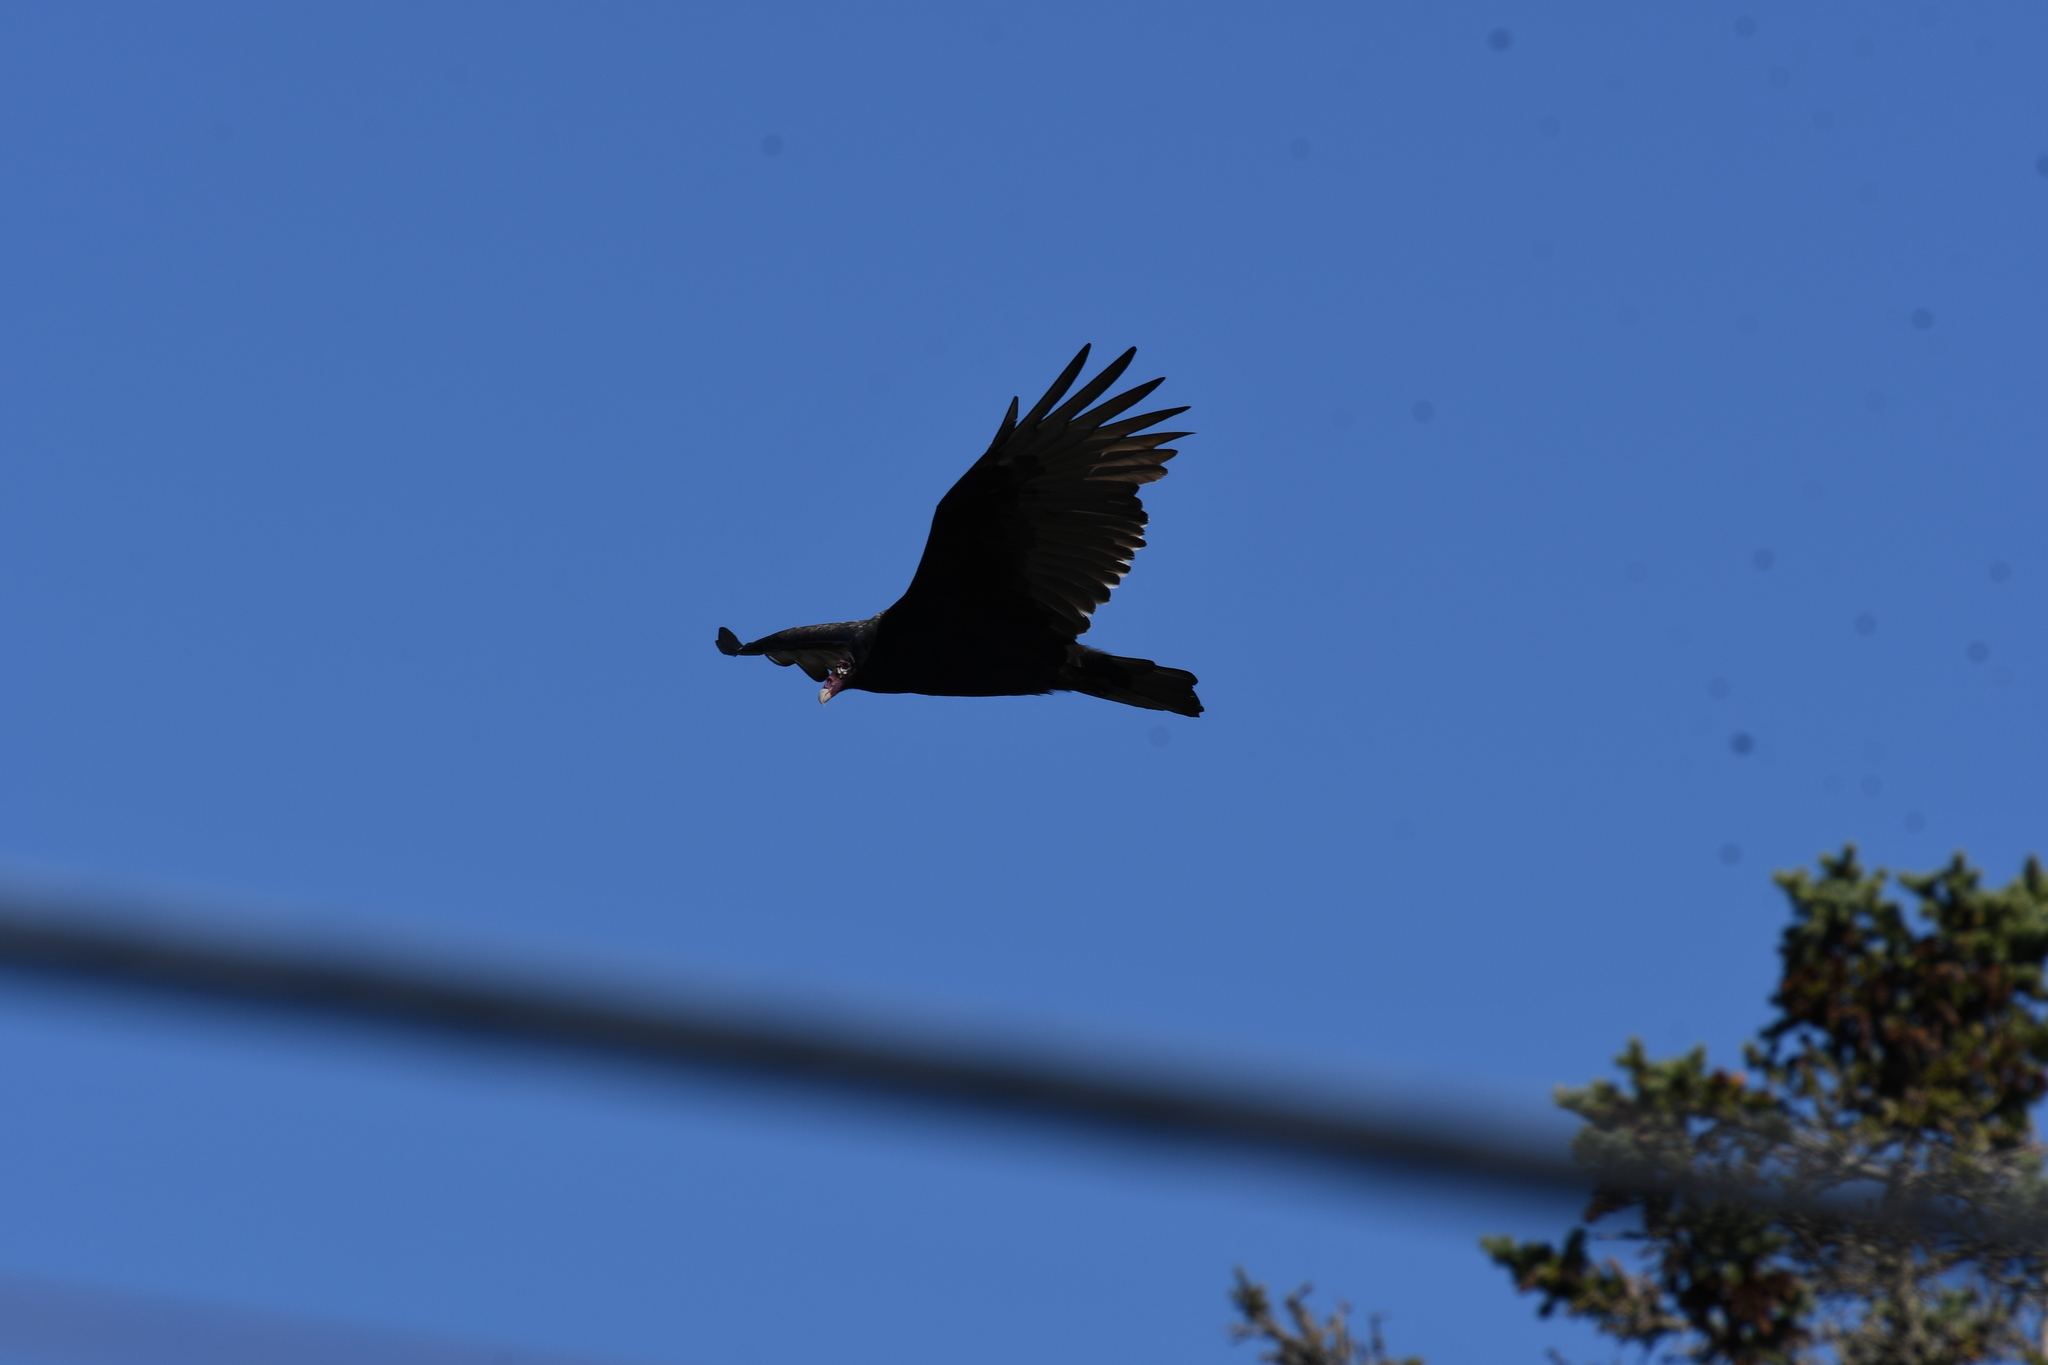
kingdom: Animalia
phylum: Chordata
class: Aves
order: Accipitriformes
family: Cathartidae
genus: Cathartes
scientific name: Cathartes aura
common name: Turkey vulture
